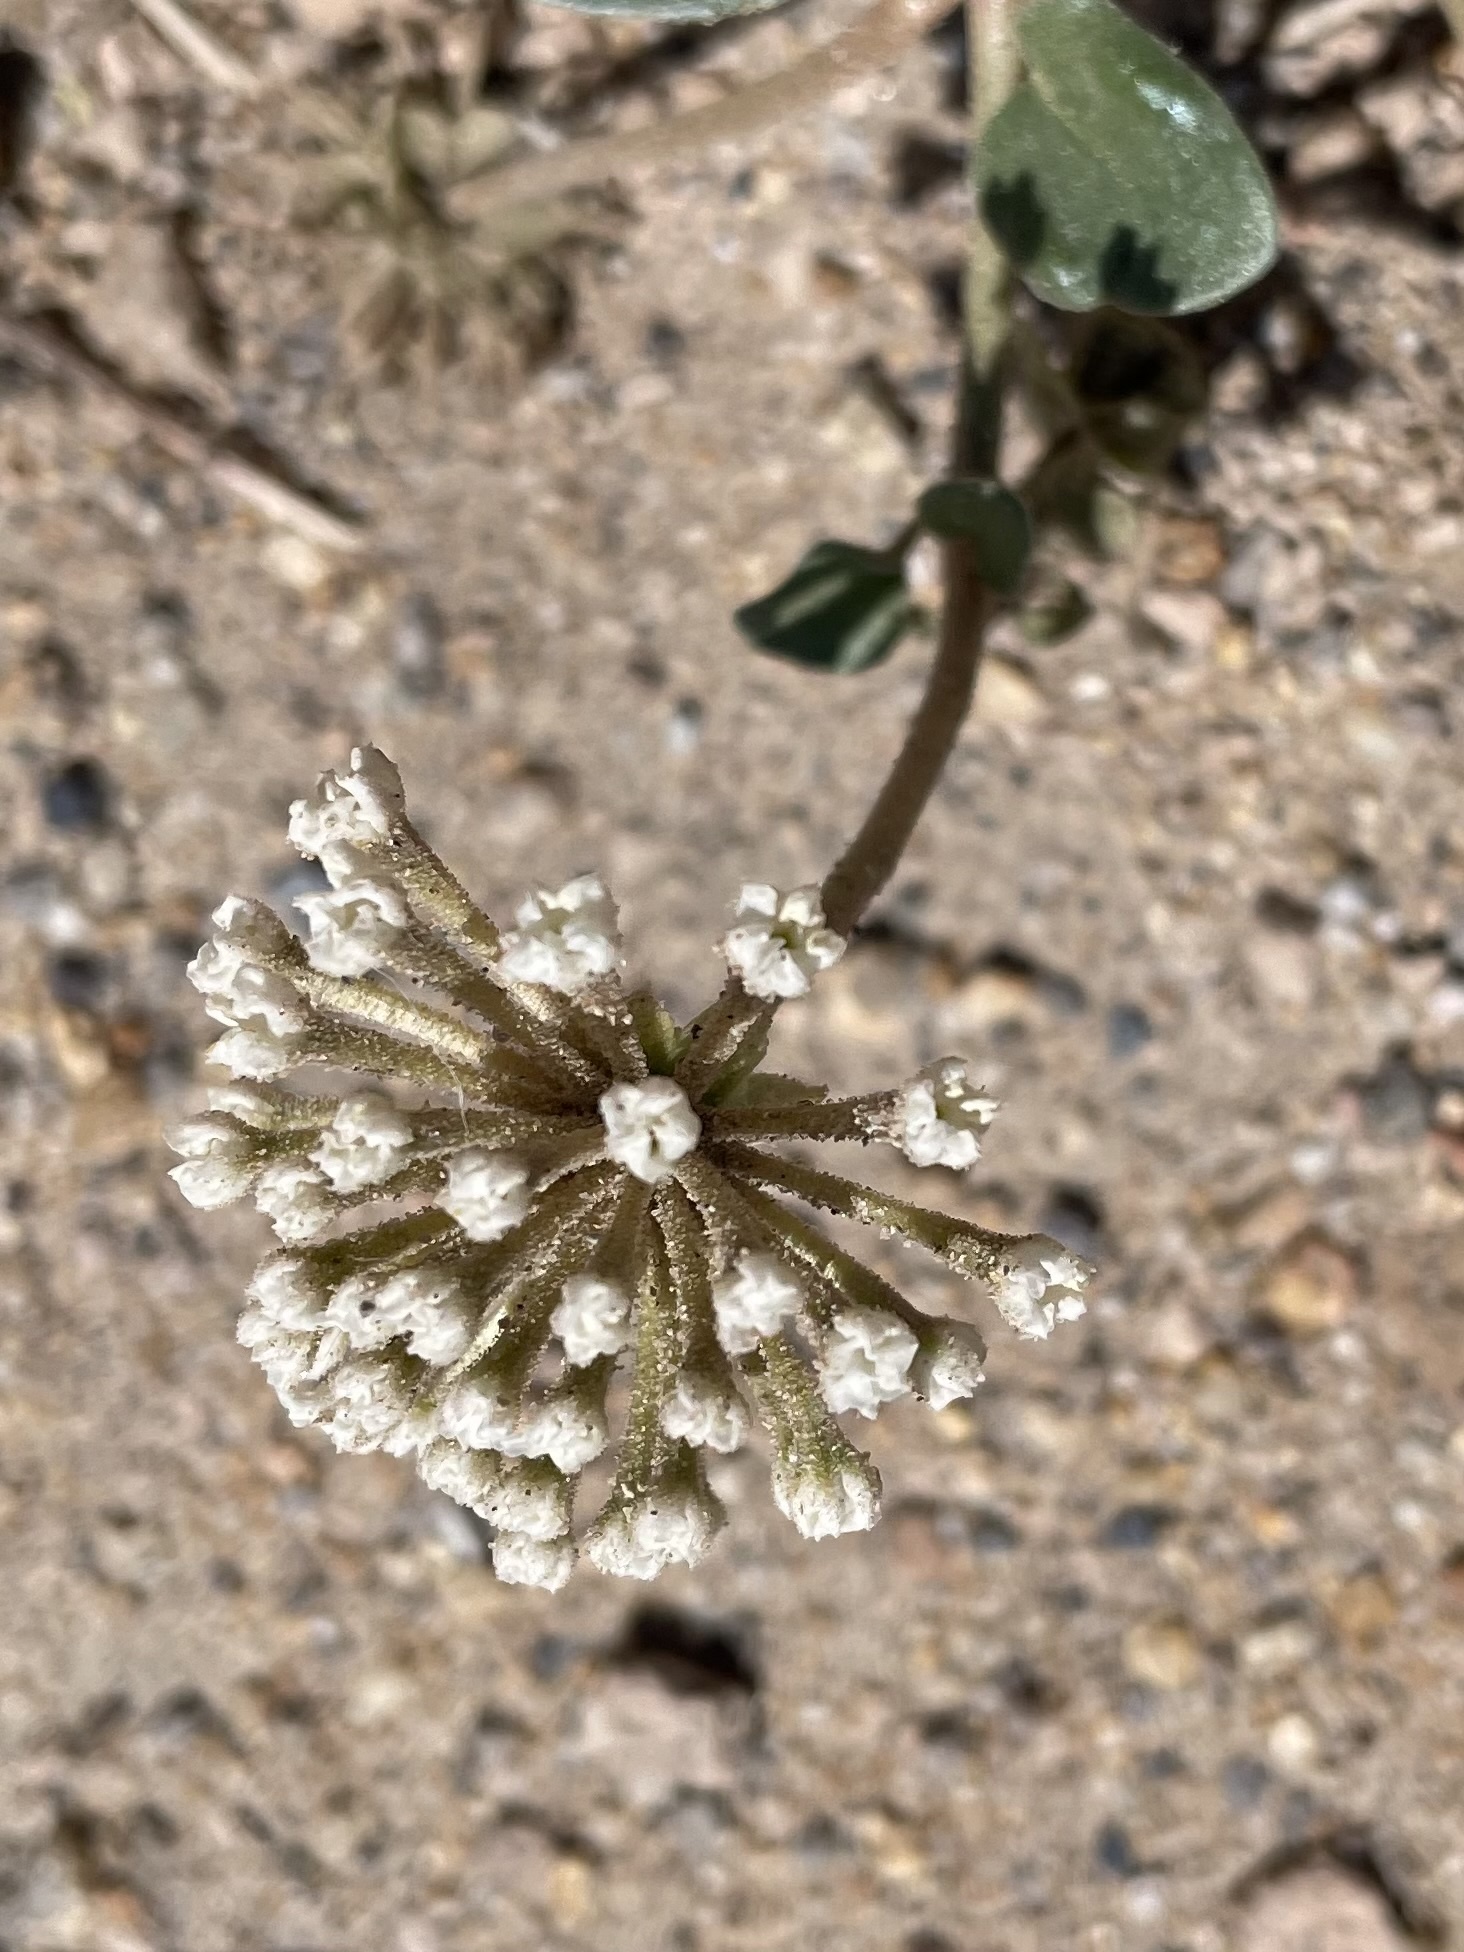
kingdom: Plantae
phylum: Tracheophyta
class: Magnoliopsida
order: Caryophyllales
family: Nyctaginaceae
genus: Abronia
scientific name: Abronia turbinata
